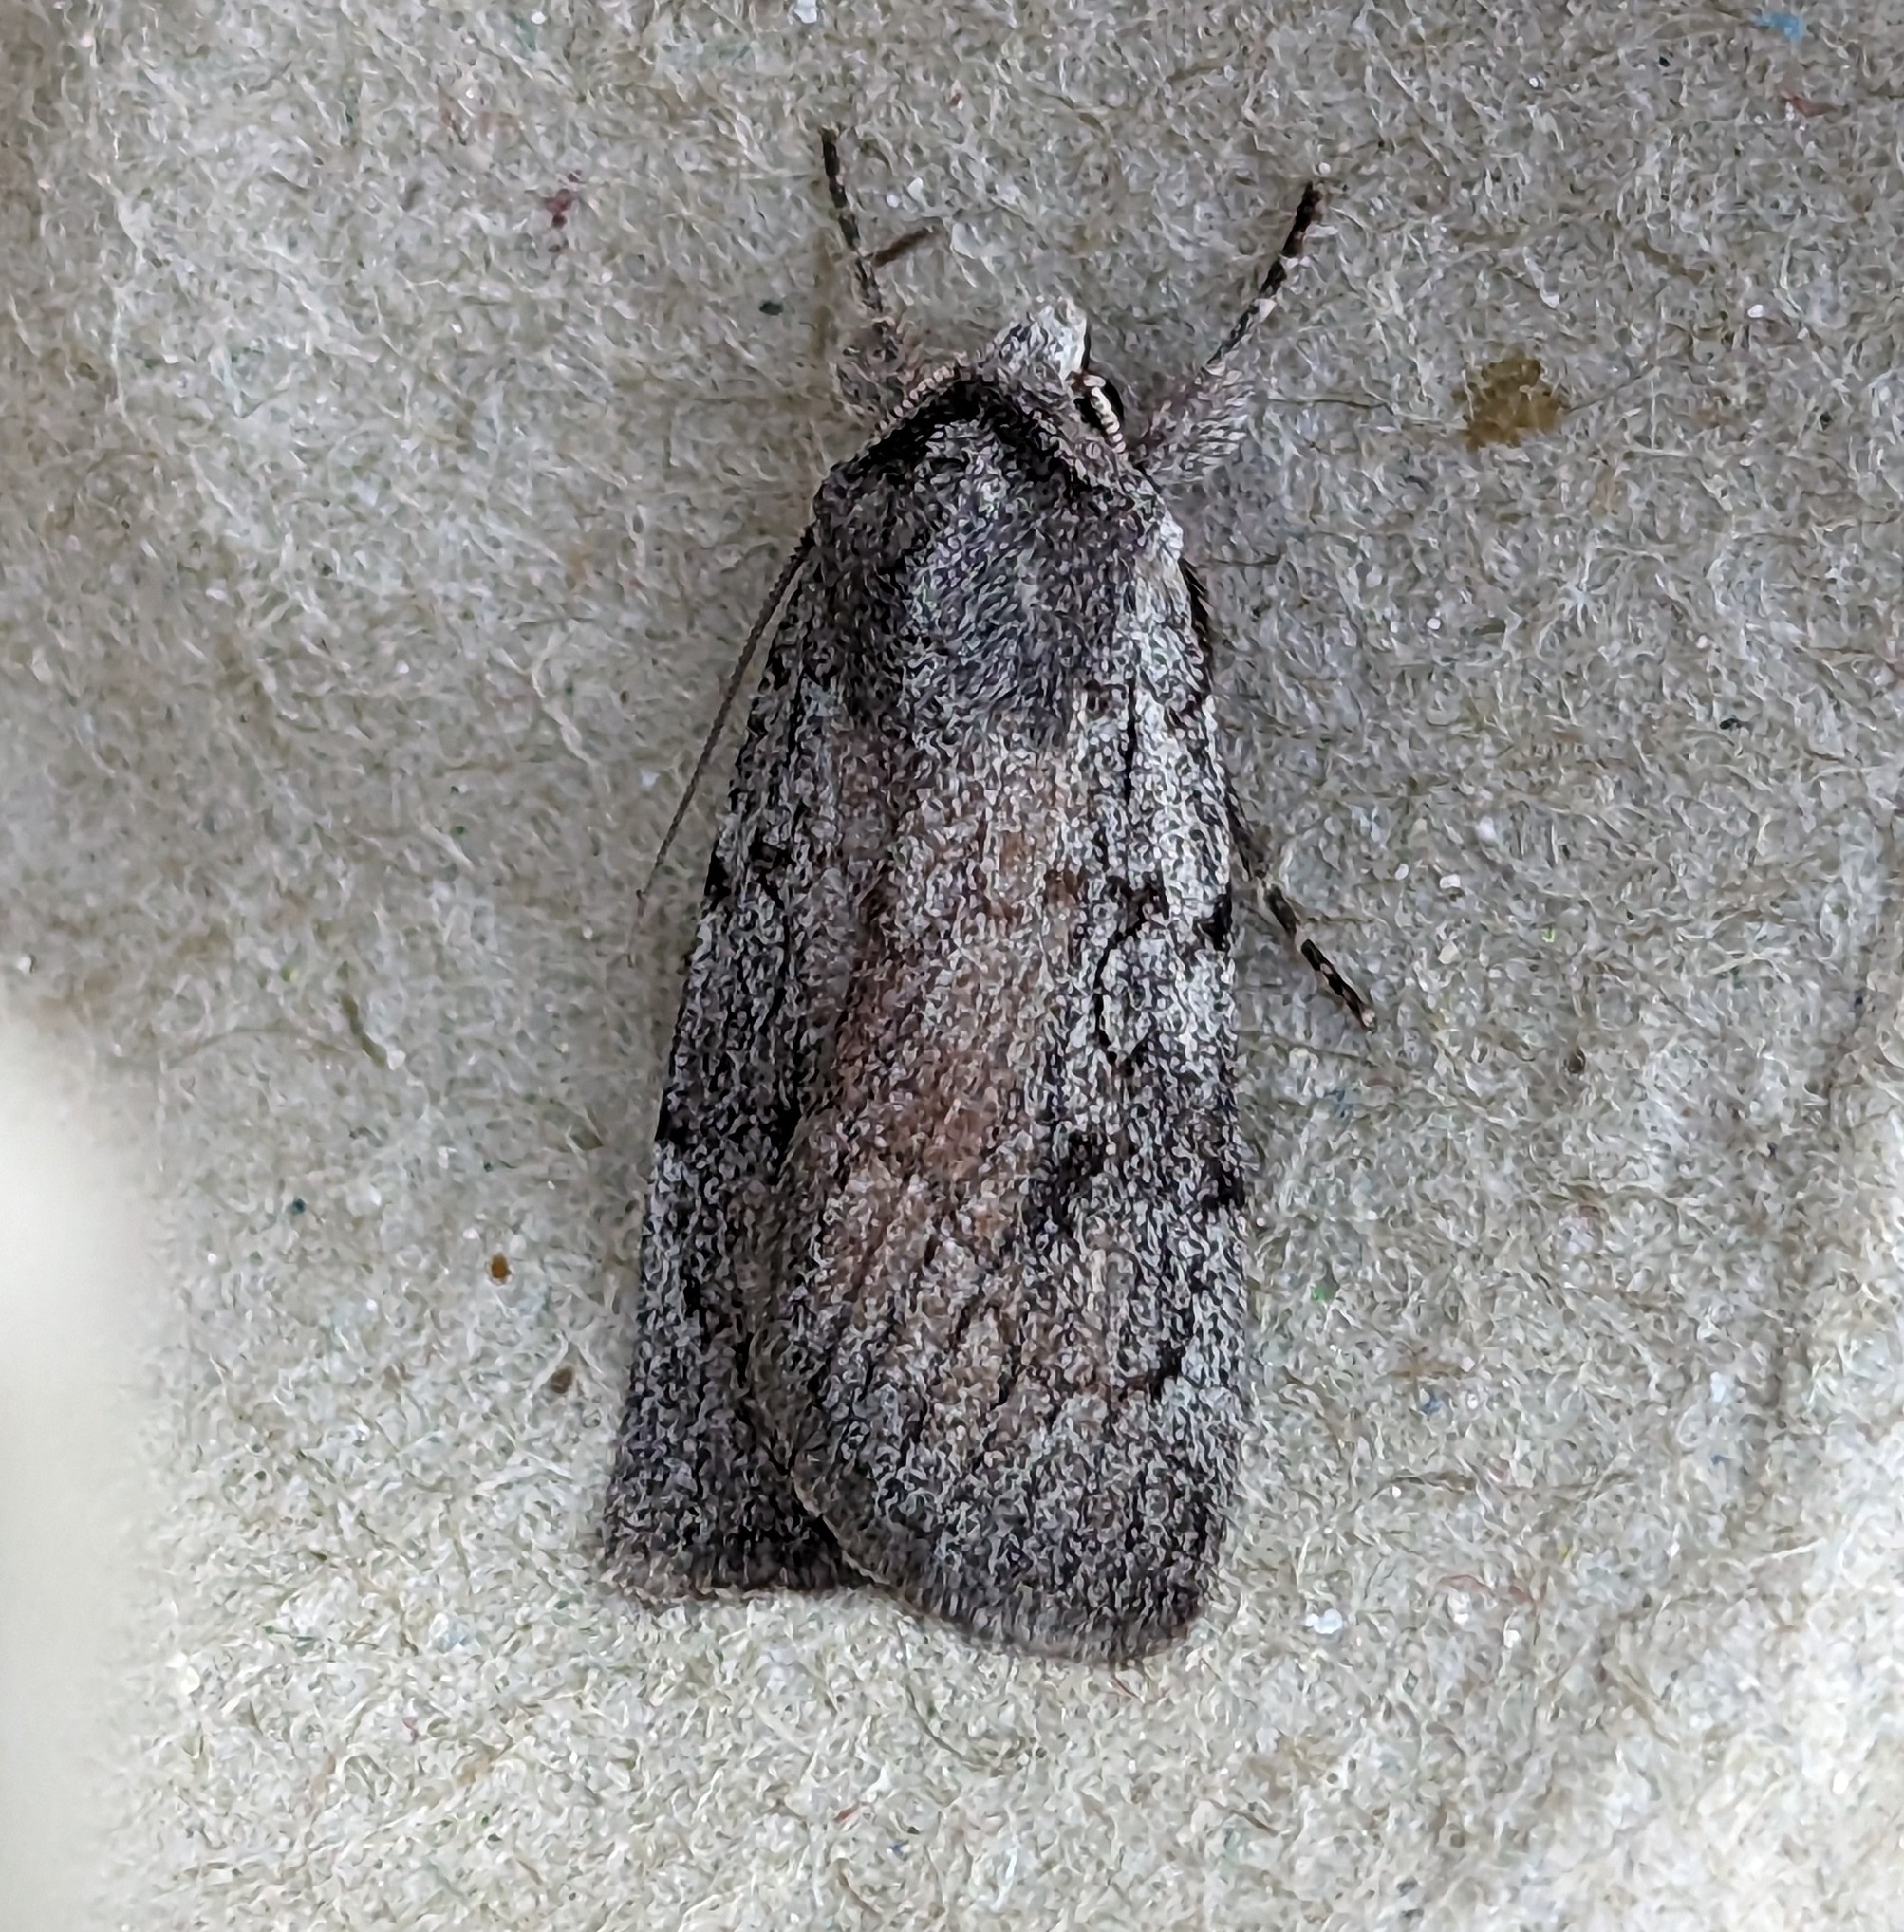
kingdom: Animalia
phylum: Arthropoda
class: Insecta
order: Lepidoptera
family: Noctuidae
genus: Setagrotis
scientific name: Setagrotis pallidicollis
